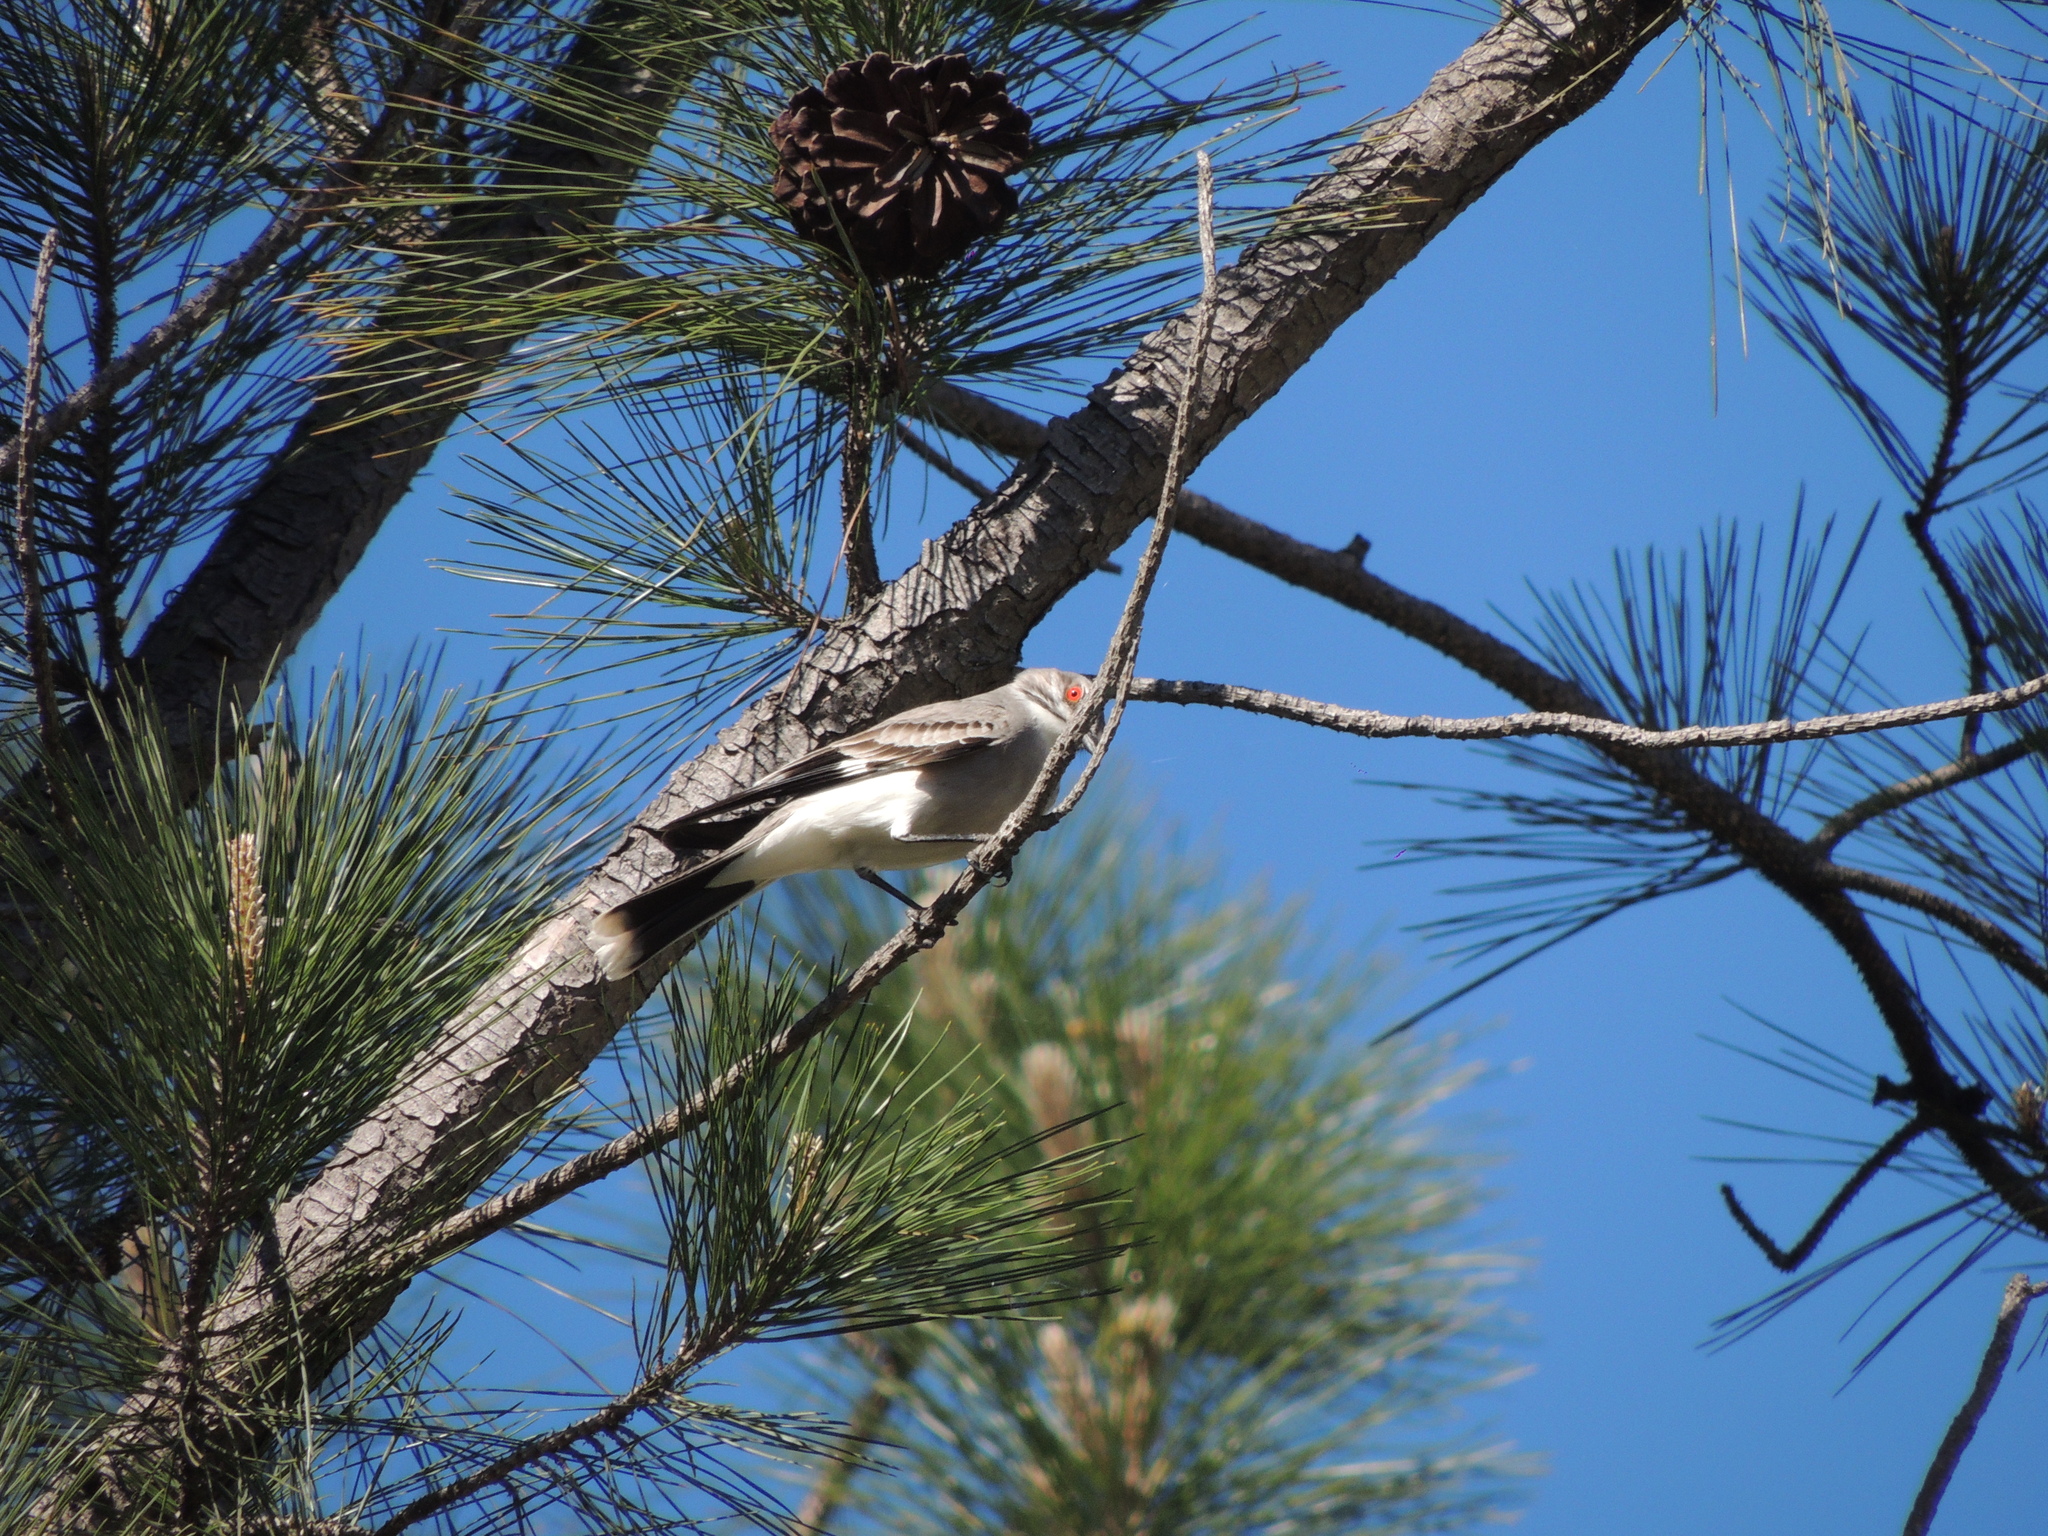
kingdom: Animalia
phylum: Chordata
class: Aves
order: Passeriformes
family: Tyrannidae
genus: Xolmis
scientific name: Xolmis cinereus
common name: Grey monjita
